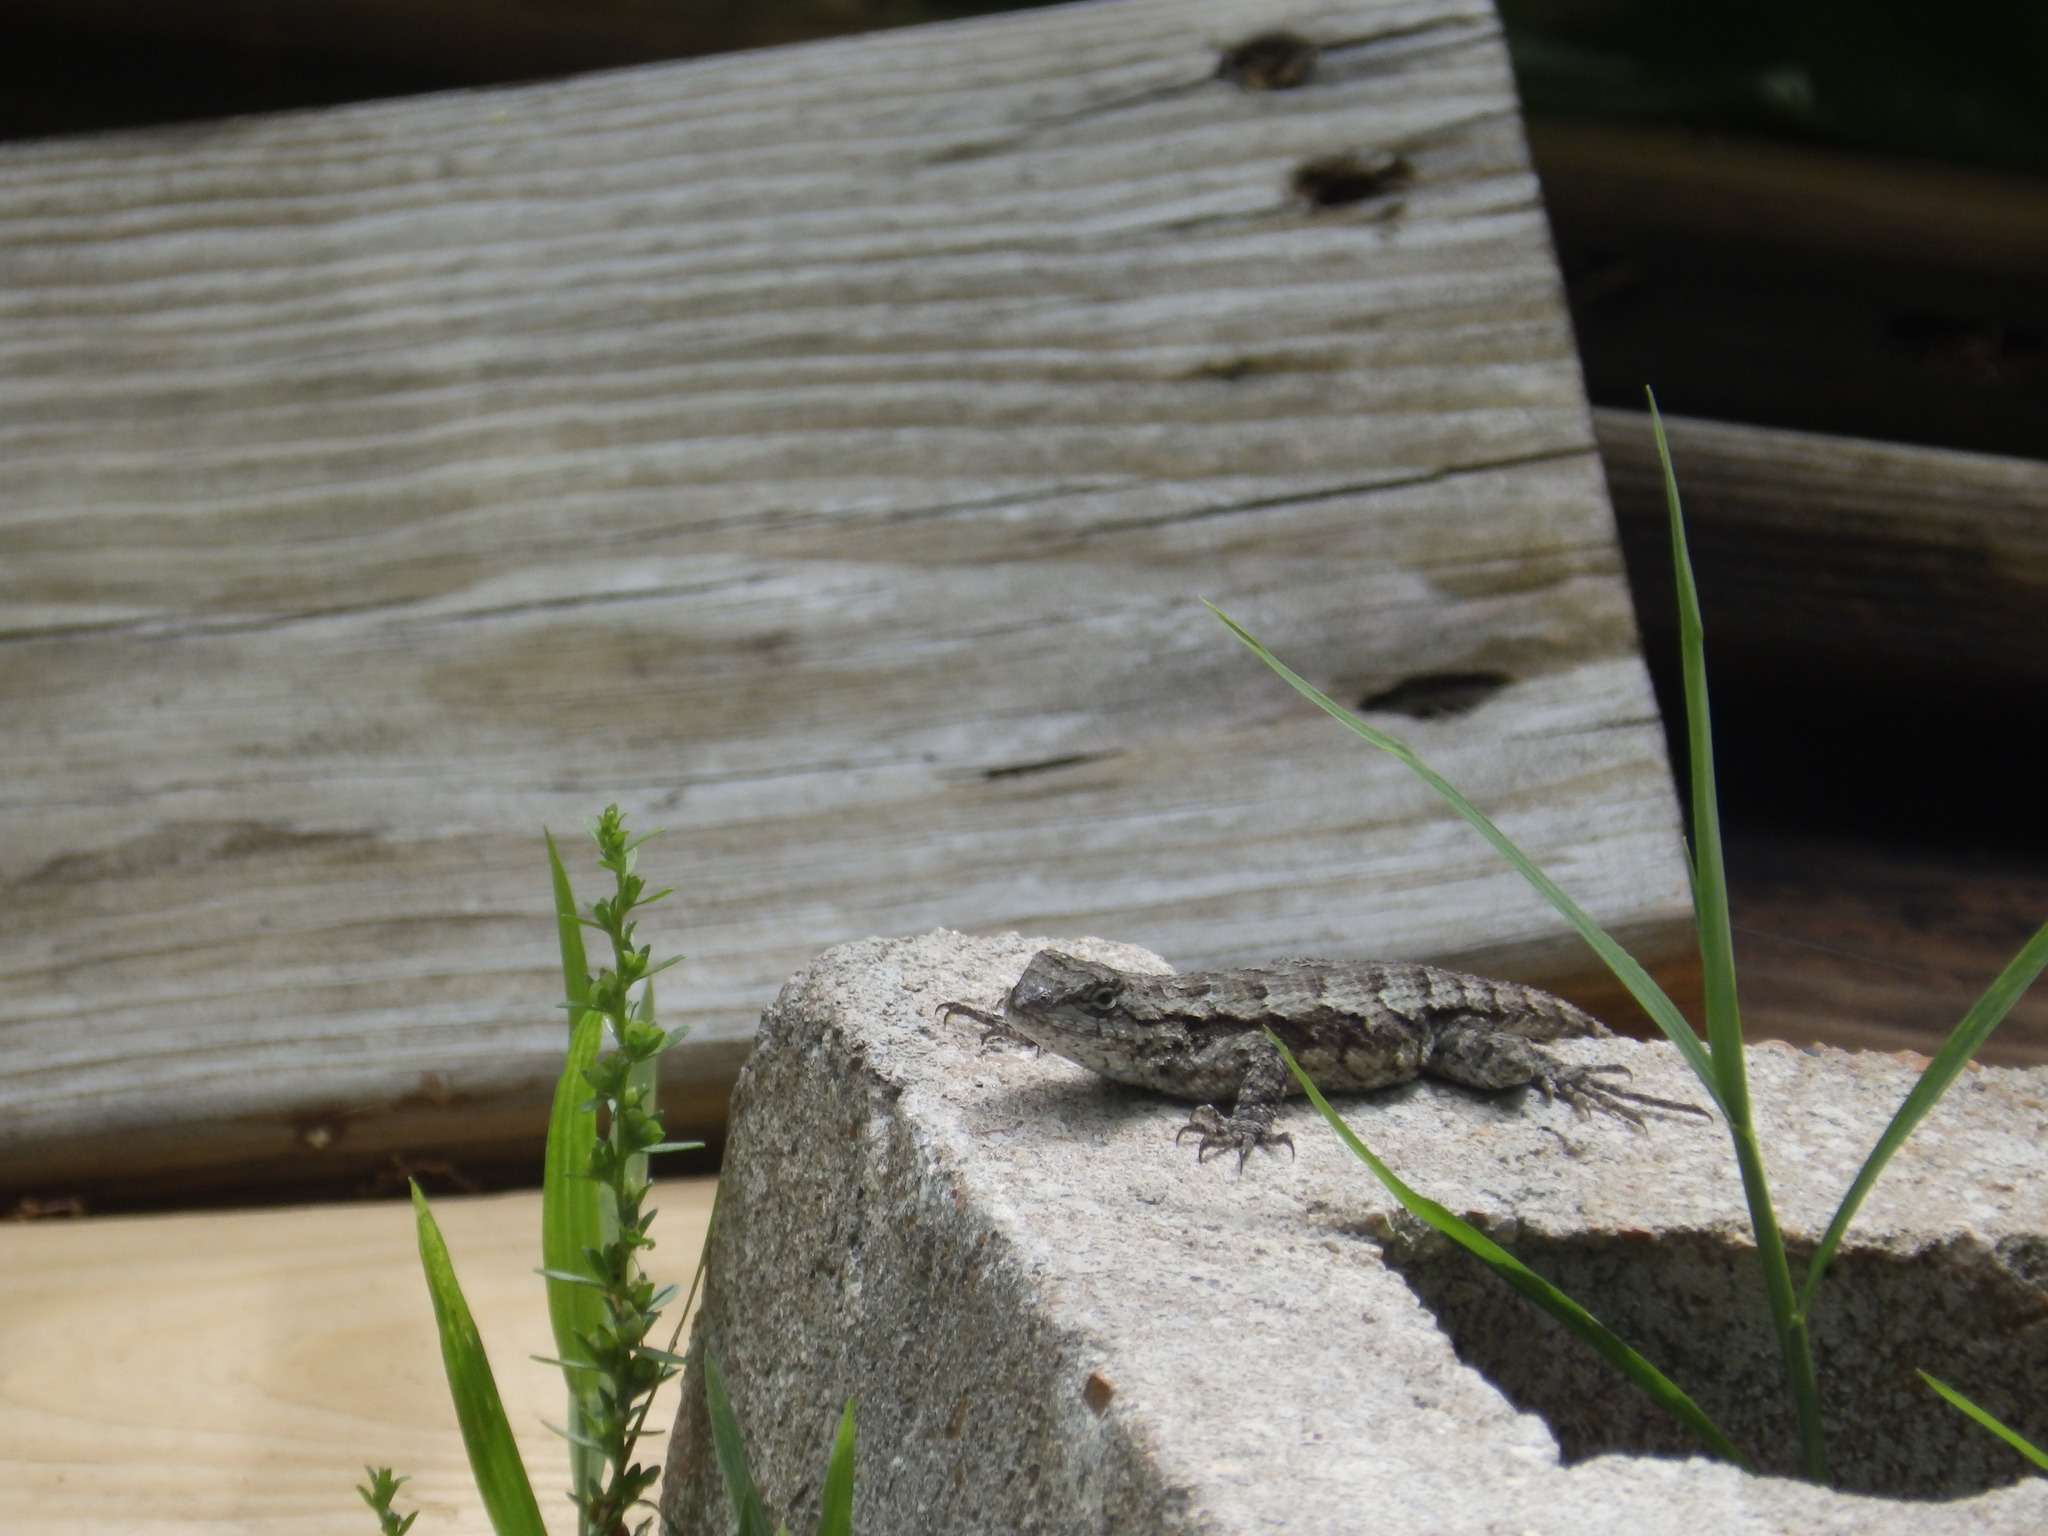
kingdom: Animalia
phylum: Chordata
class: Squamata
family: Phrynosomatidae
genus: Sceloporus
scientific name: Sceloporus consobrinus
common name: Southern prairie lizard
